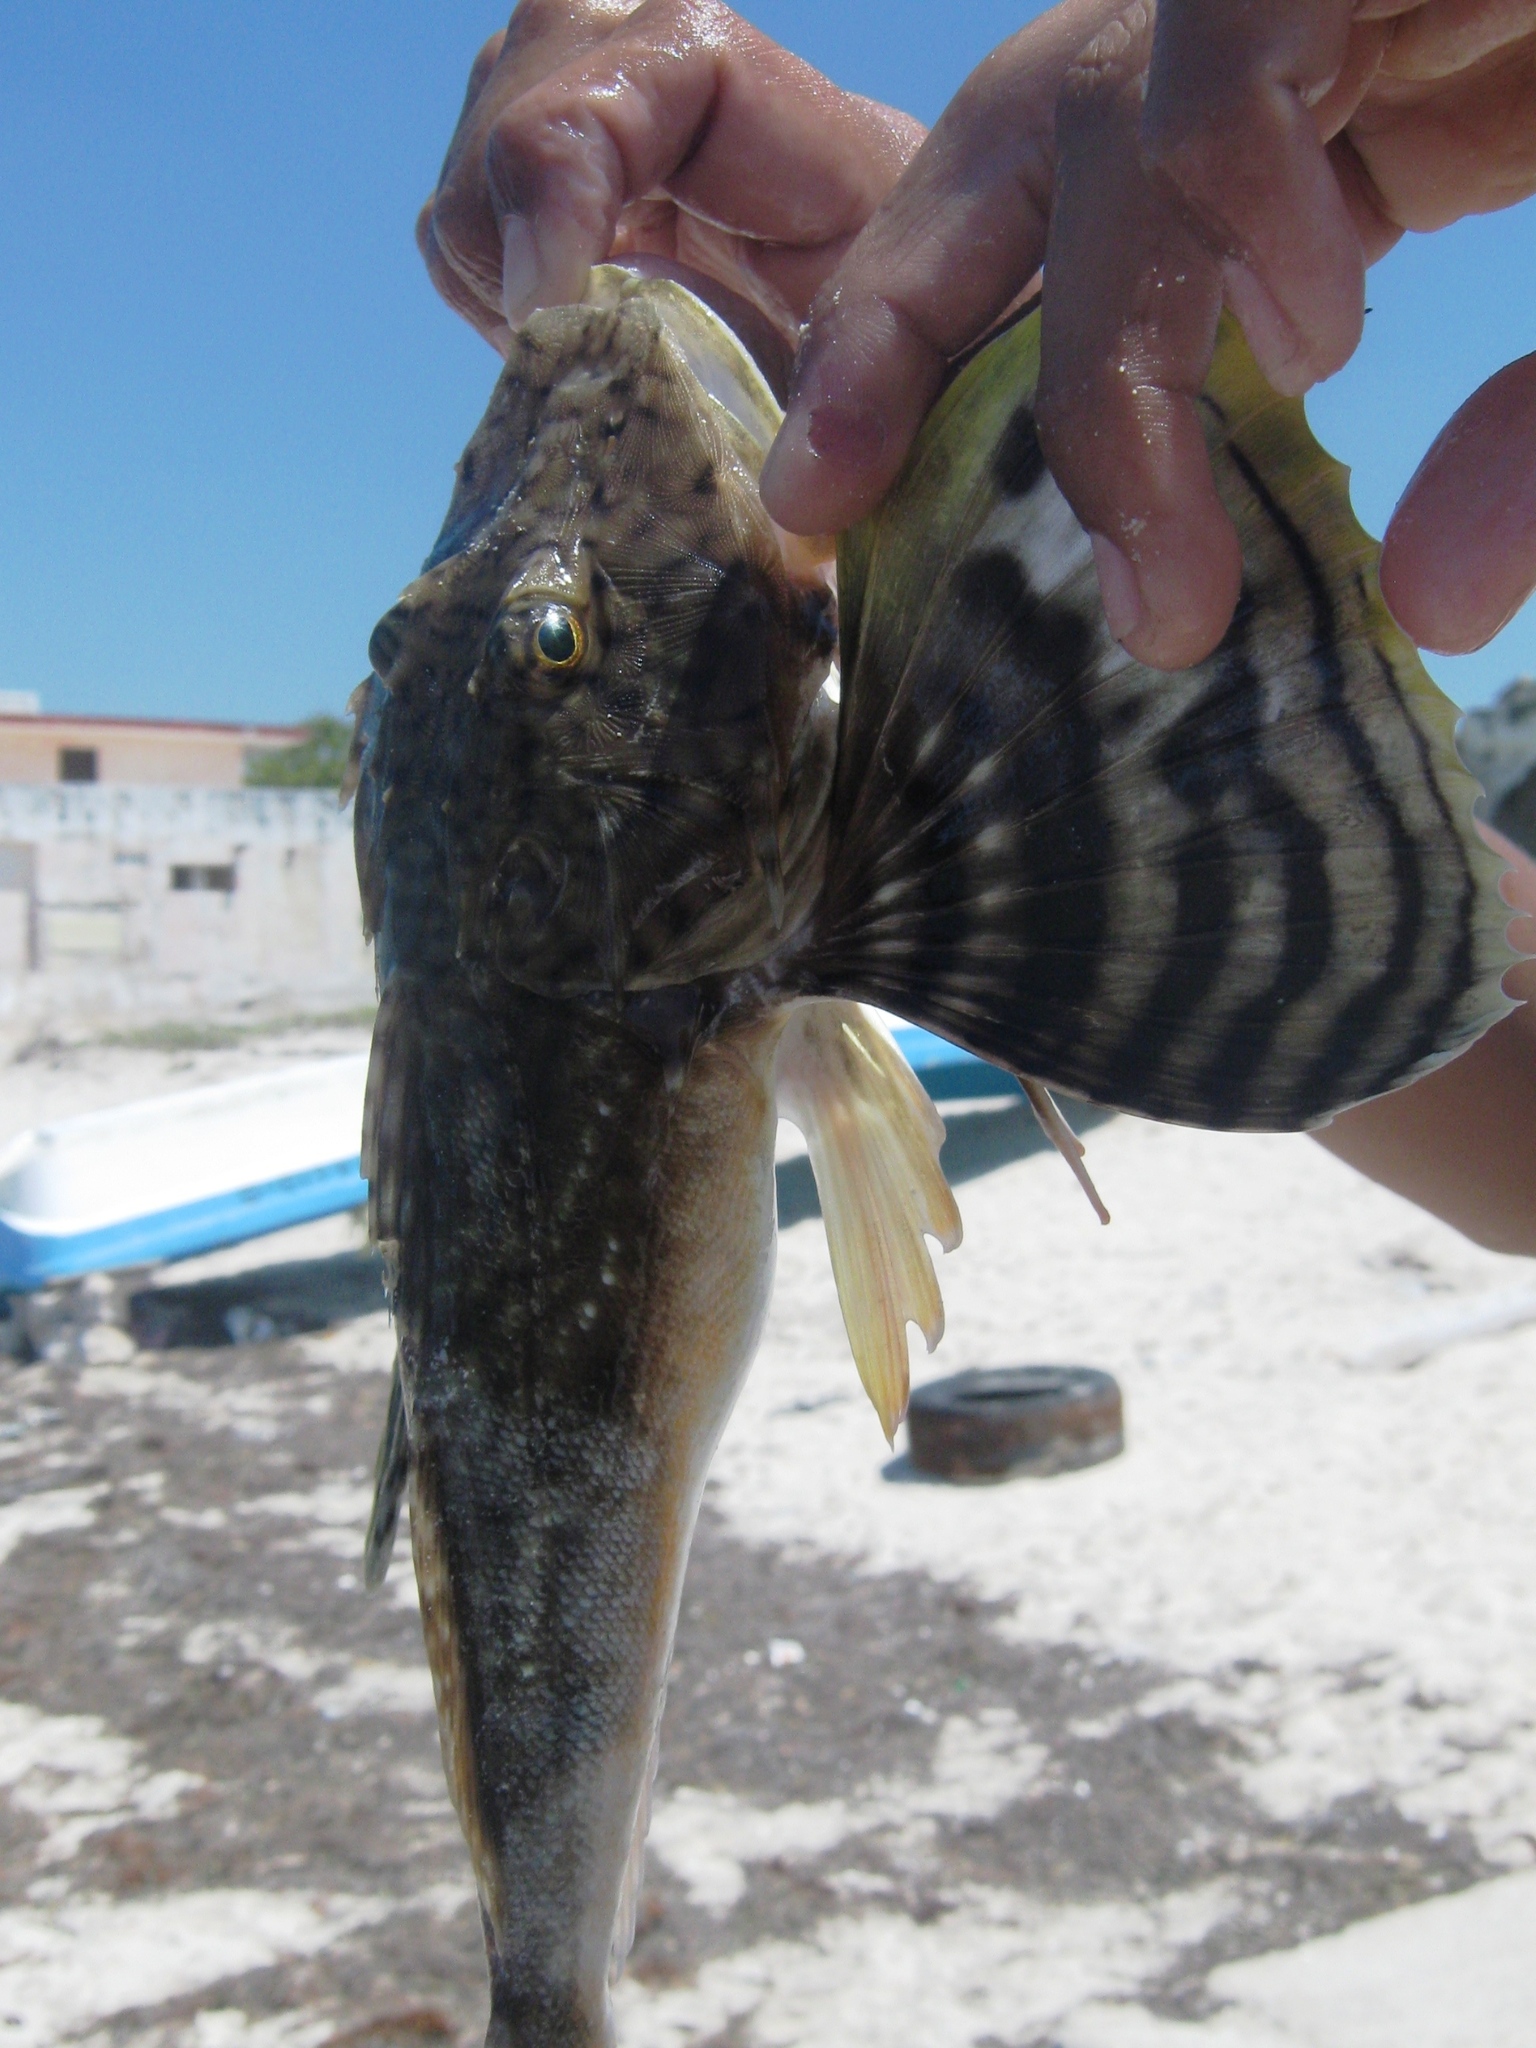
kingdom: Animalia
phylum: Chordata
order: Scorpaeniformes
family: Triglidae
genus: Prionotus
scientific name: Prionotus tribulus
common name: Bighead searobin
